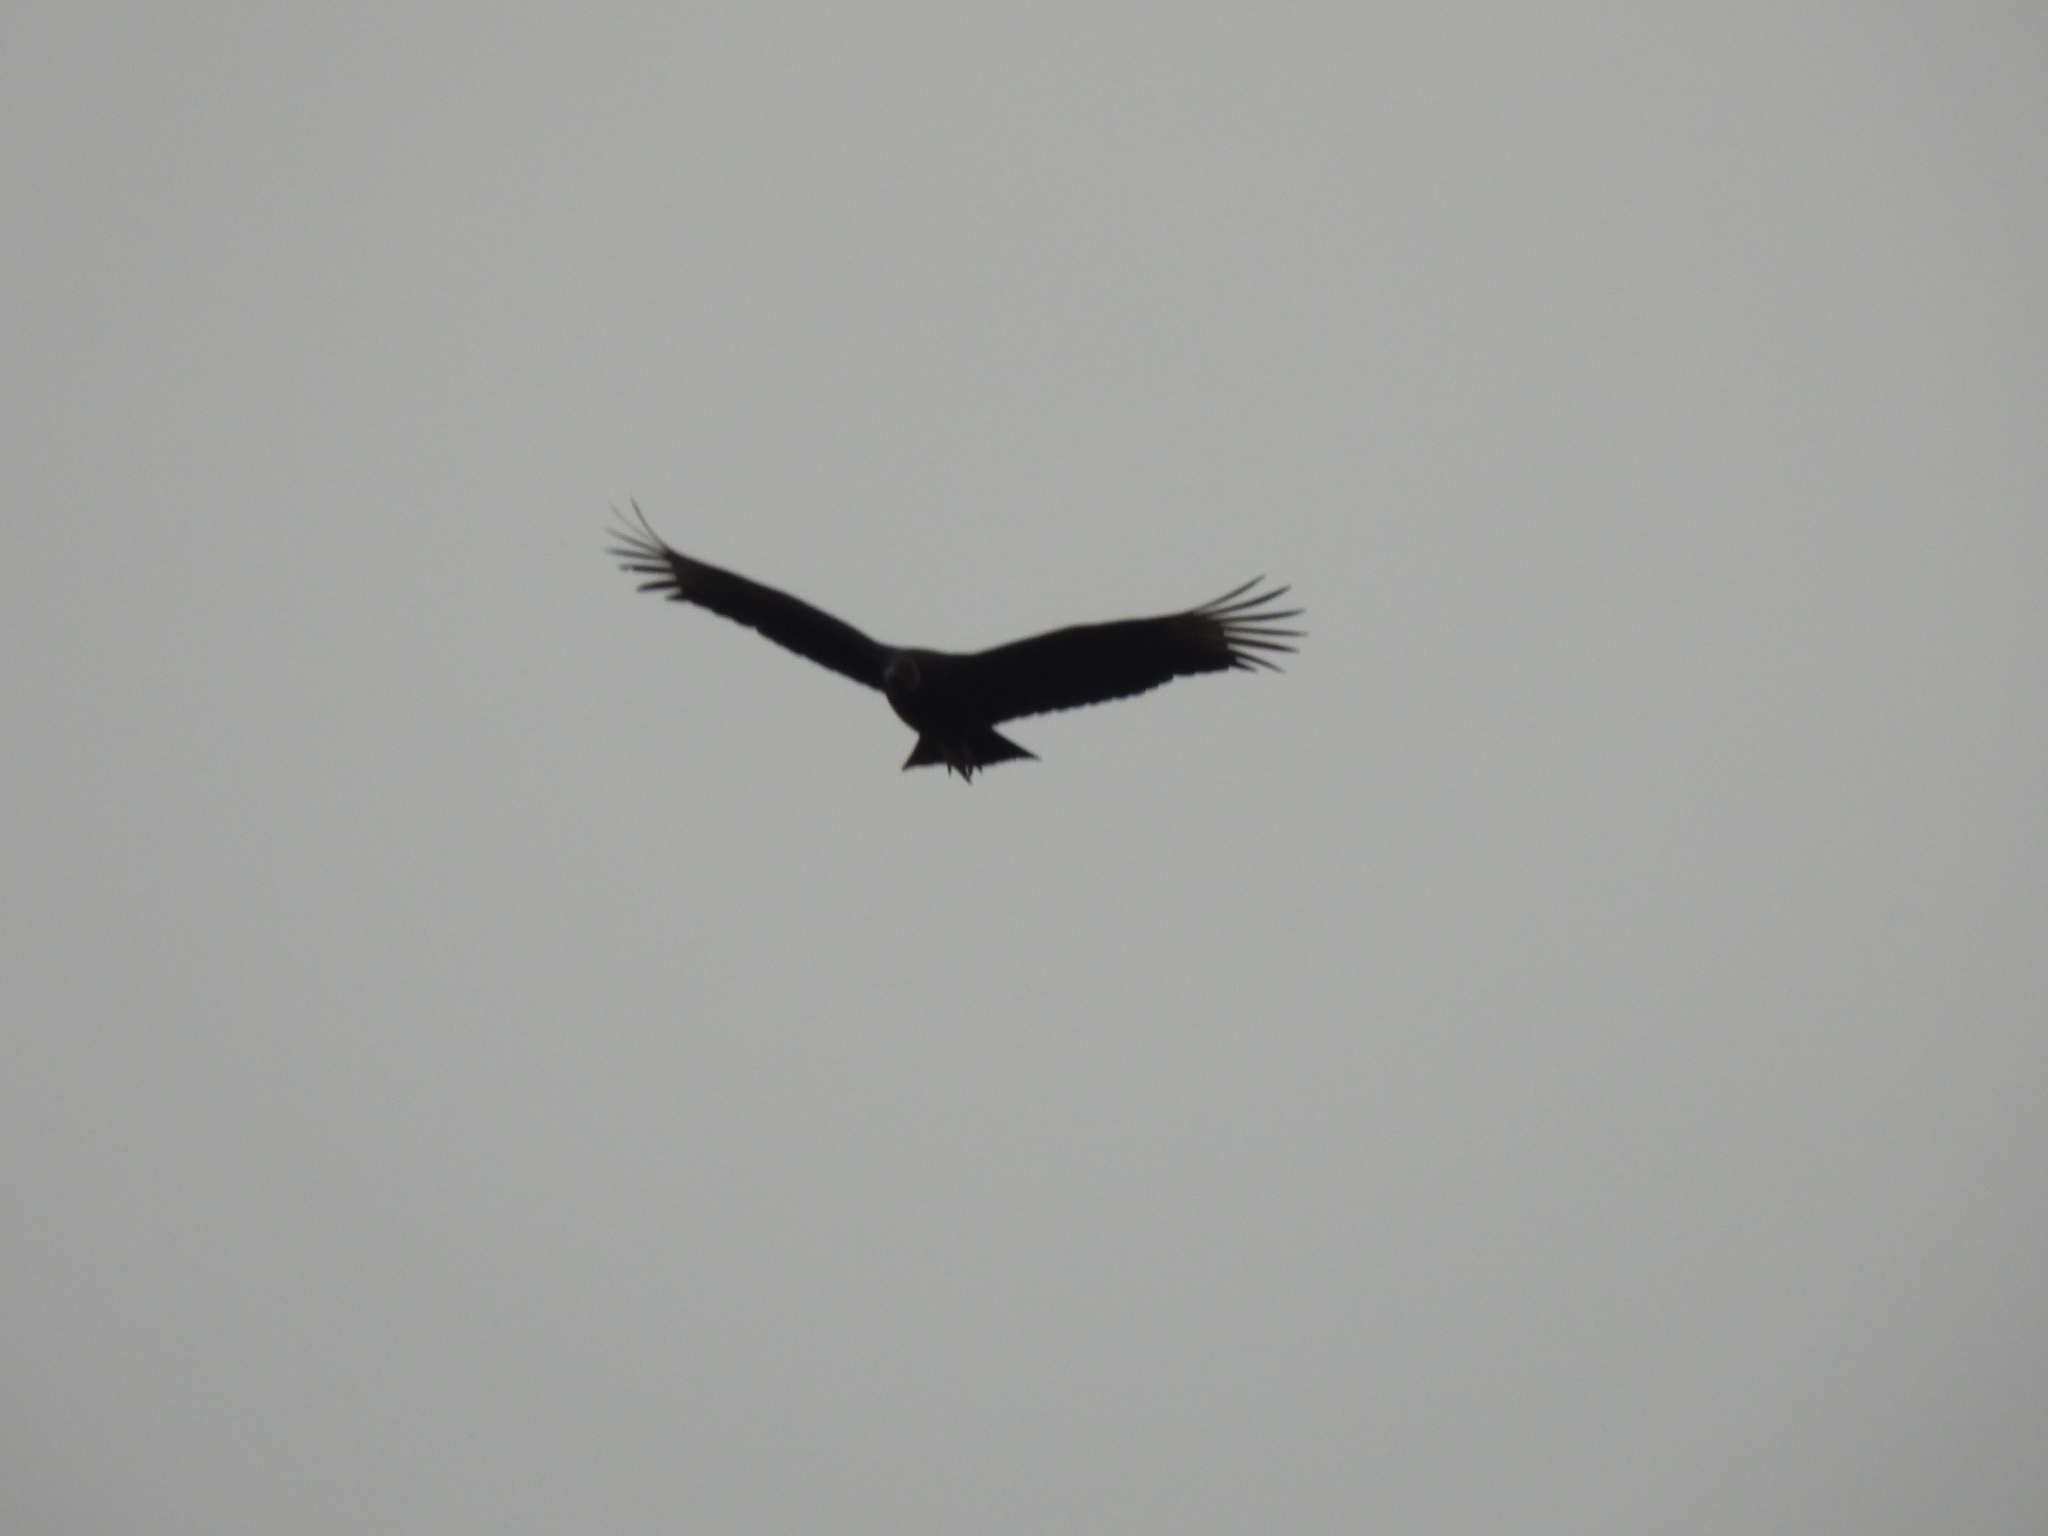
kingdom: Animalia
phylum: Chordata
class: Aves
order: Accipitriformes
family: Cathartidae
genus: Coragyps
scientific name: Coragyps atratus
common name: Black vulture
